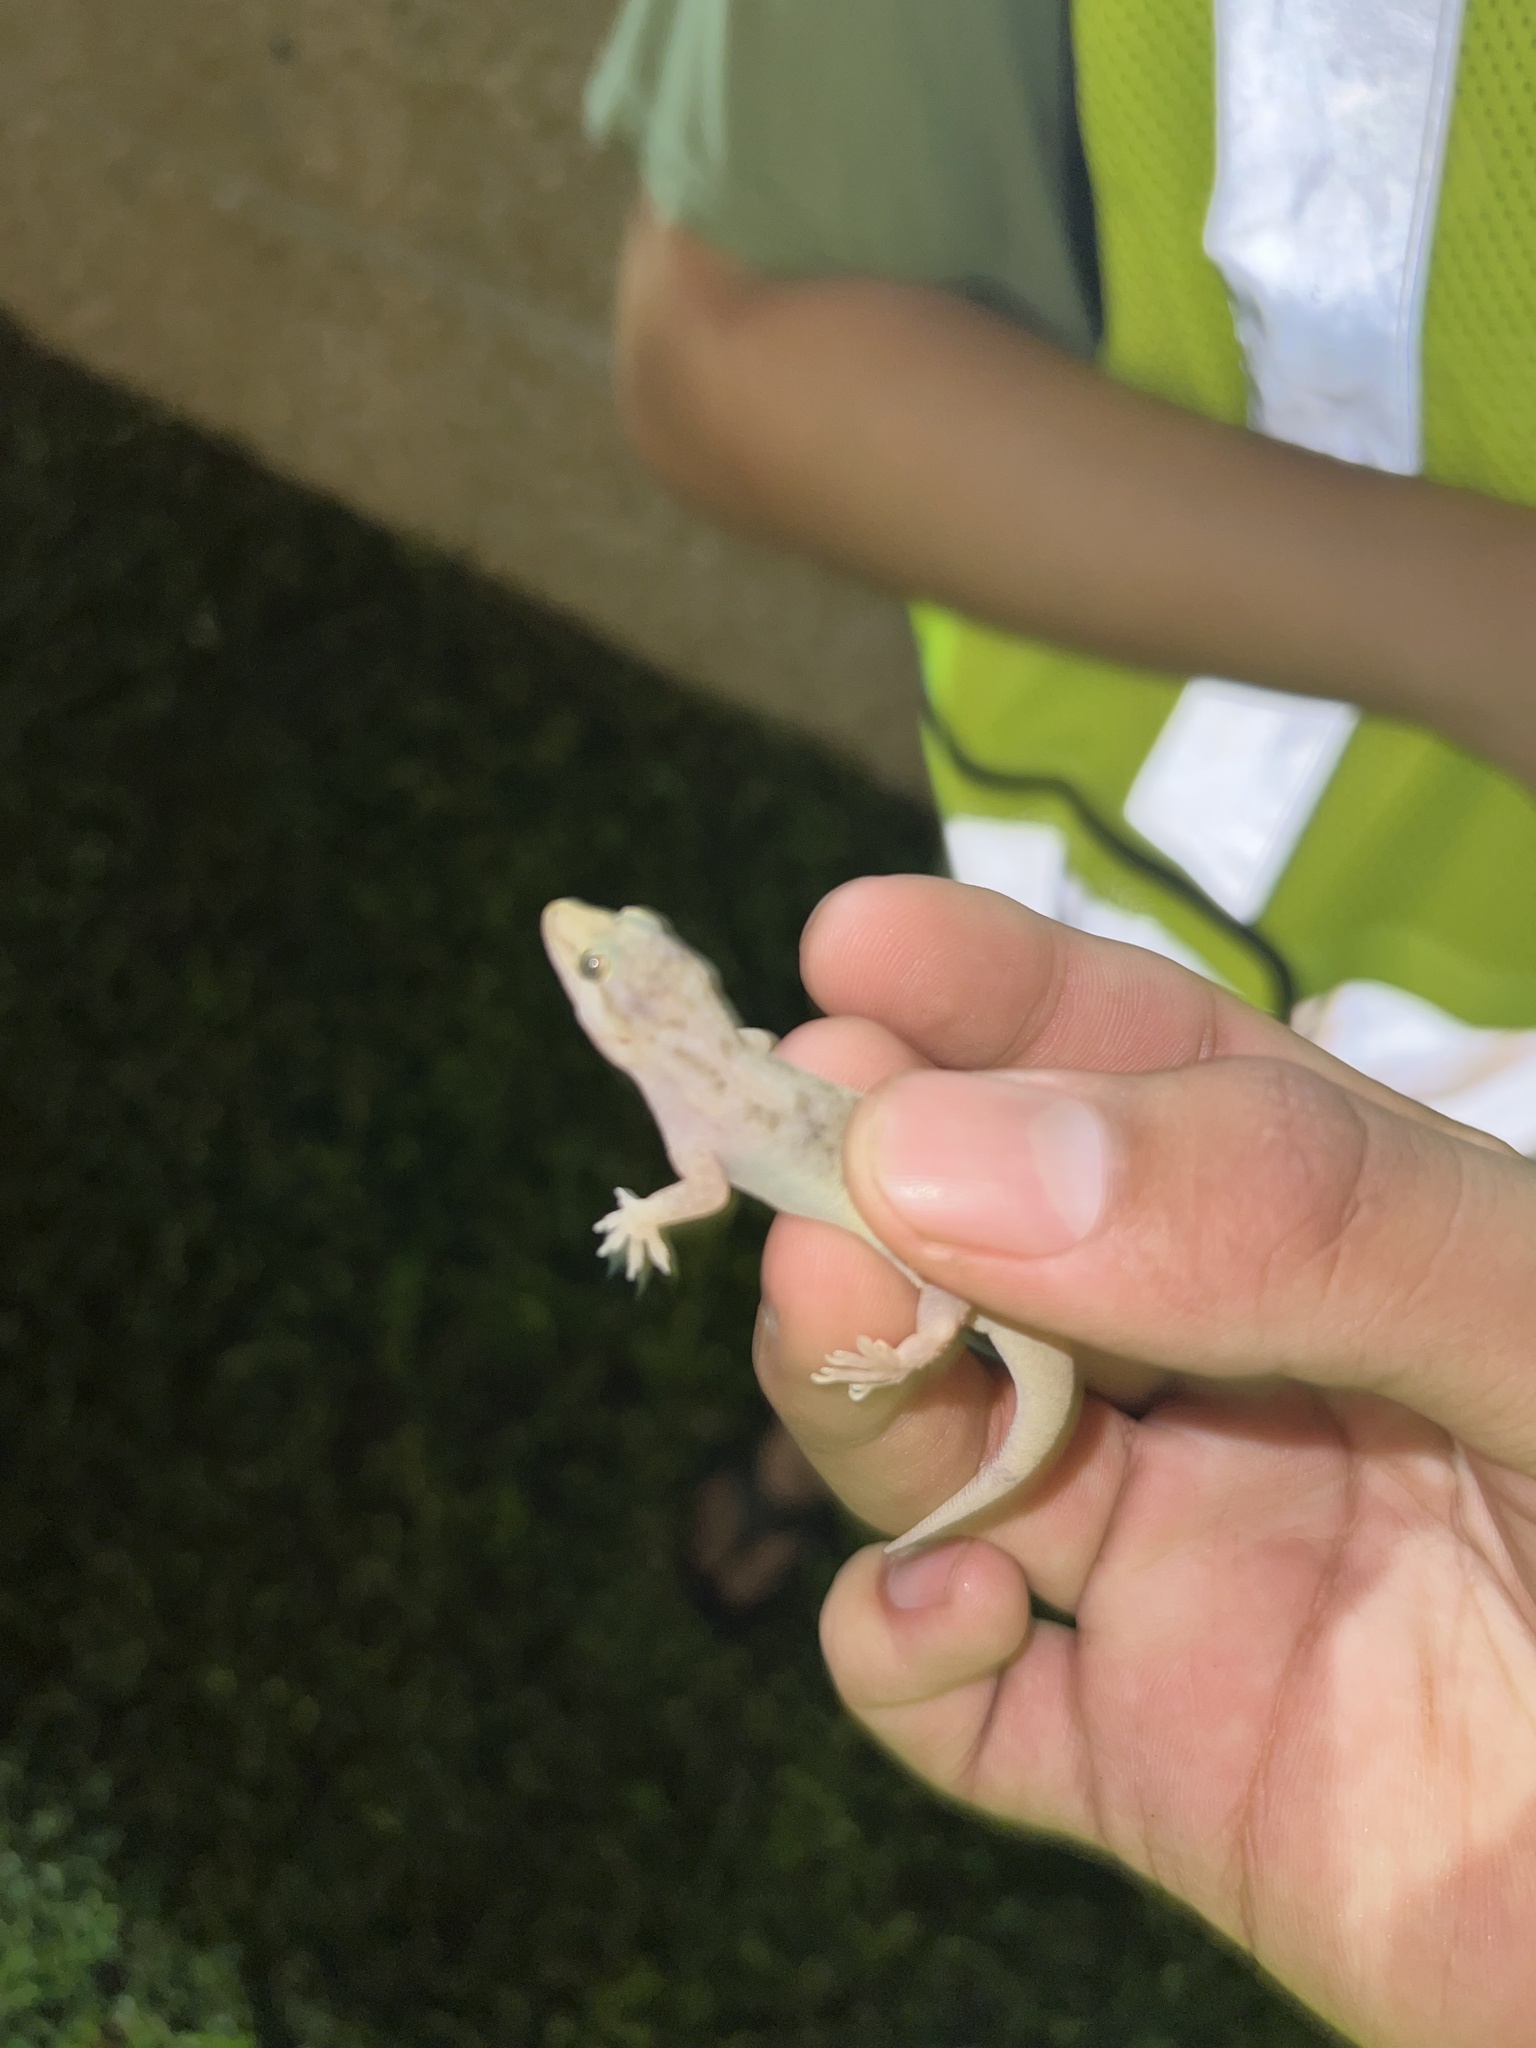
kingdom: Animalia
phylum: Chordata
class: Squamata
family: Gekkonidae
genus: Hemidactylus
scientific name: Hemidactylus parvimaculatus
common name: Spotted house gecko
